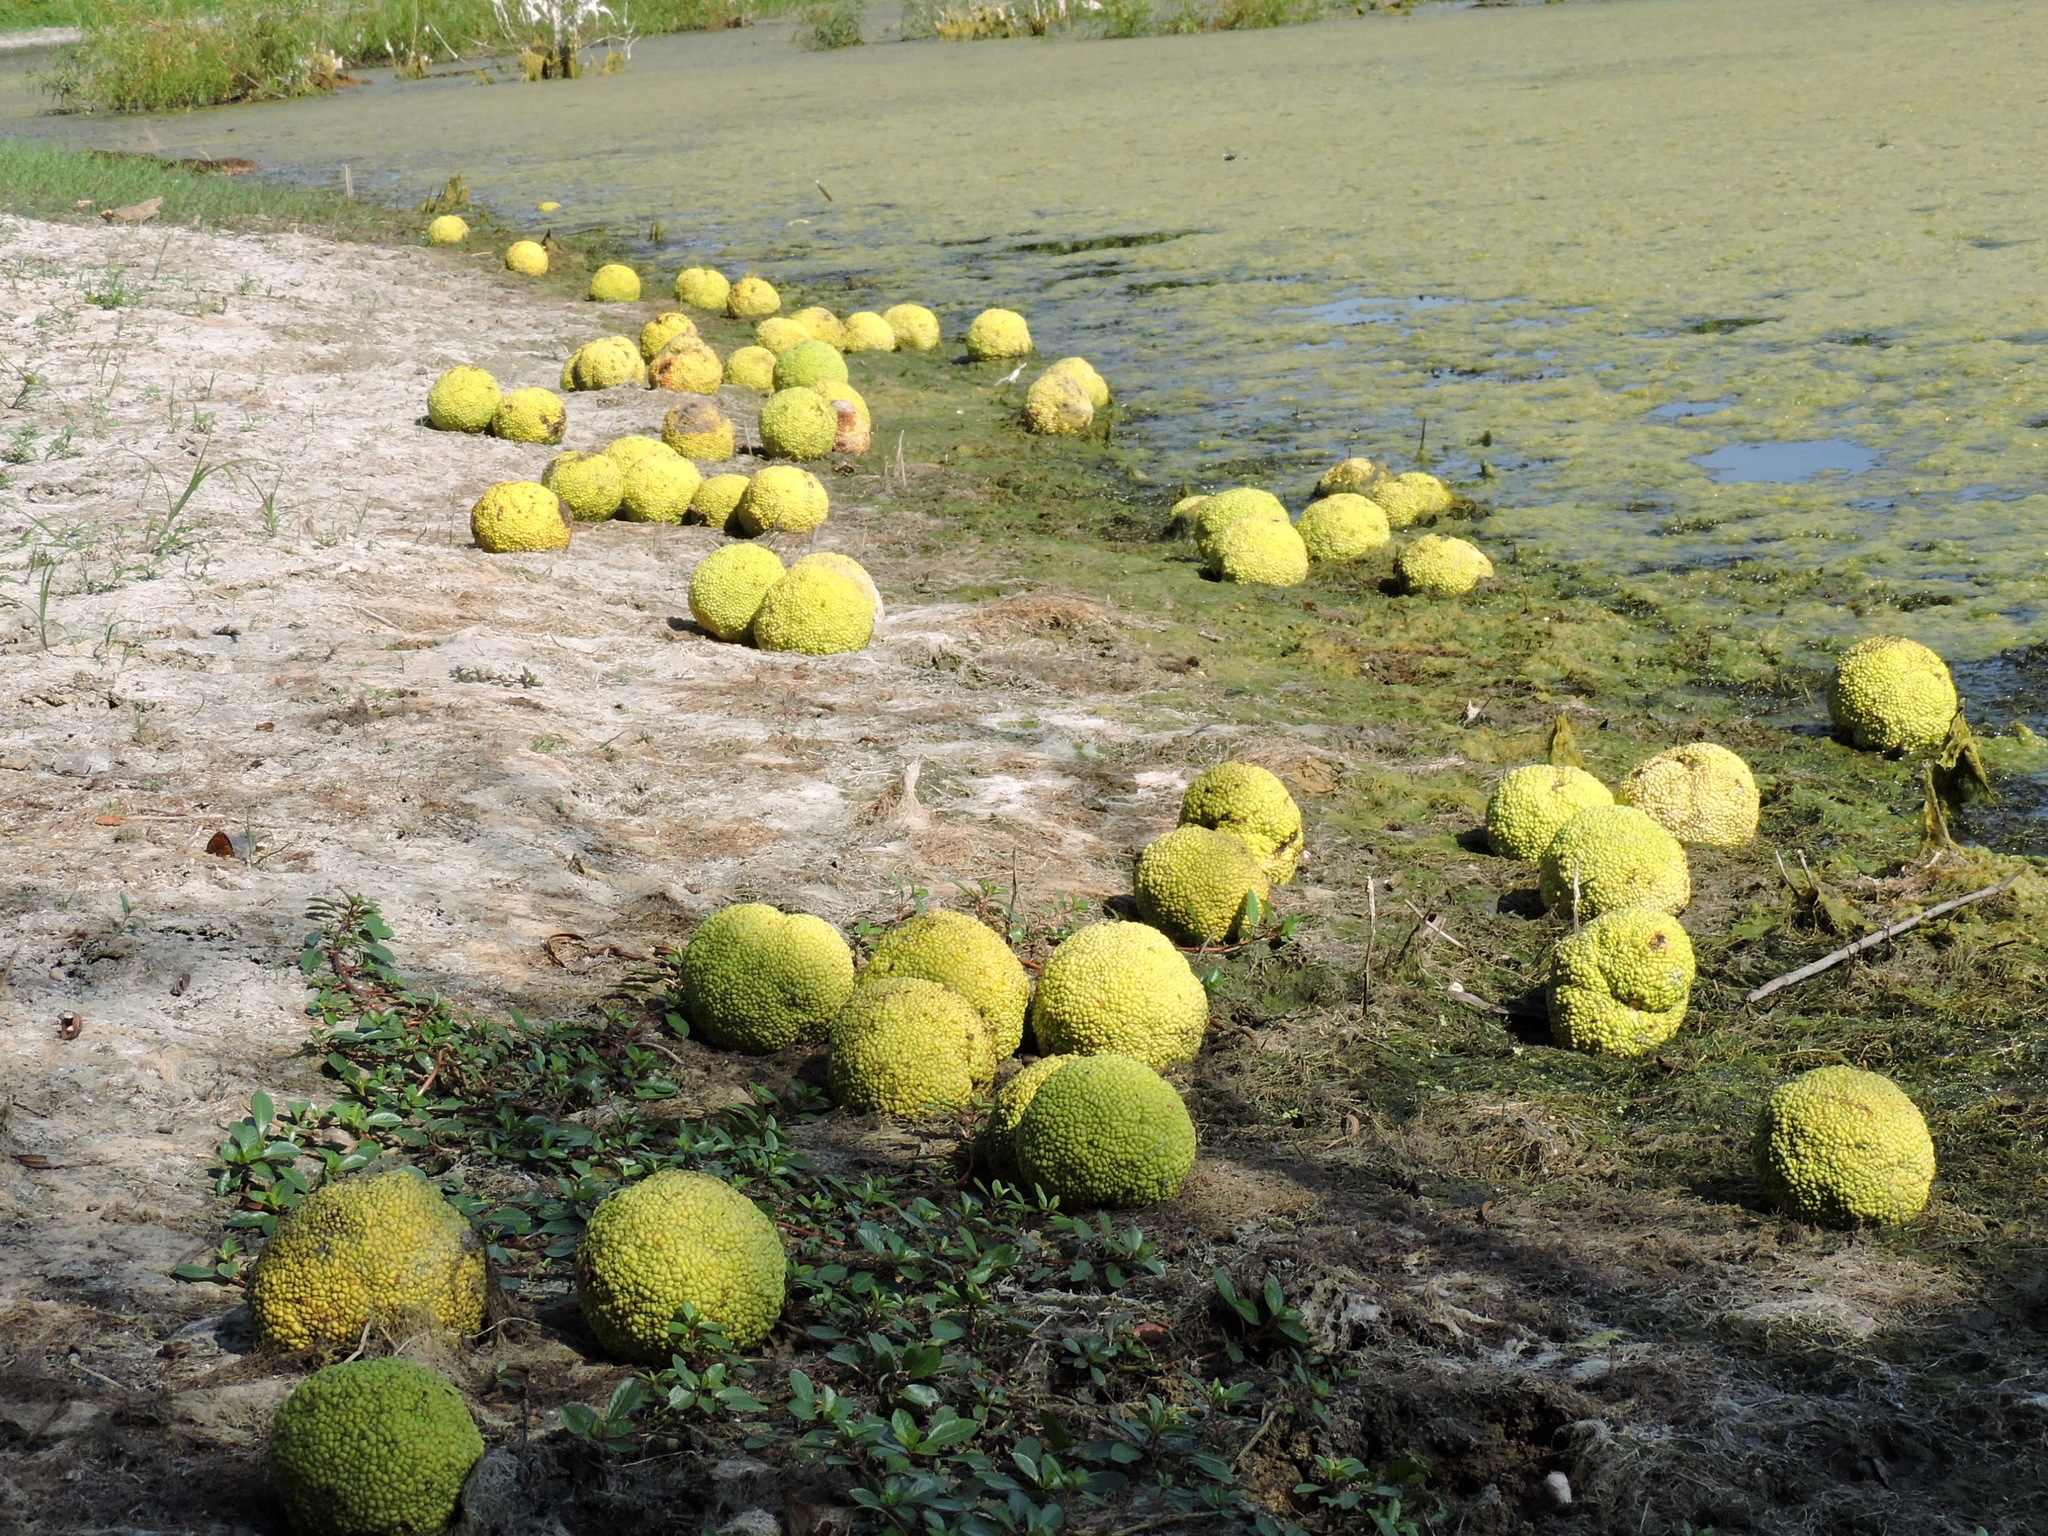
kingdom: Plantae
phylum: Tracheophyta
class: Magnoliopsida
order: Rosales
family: Moraceae
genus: Maclura
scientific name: Maclura pomifera
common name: Osage-orange
